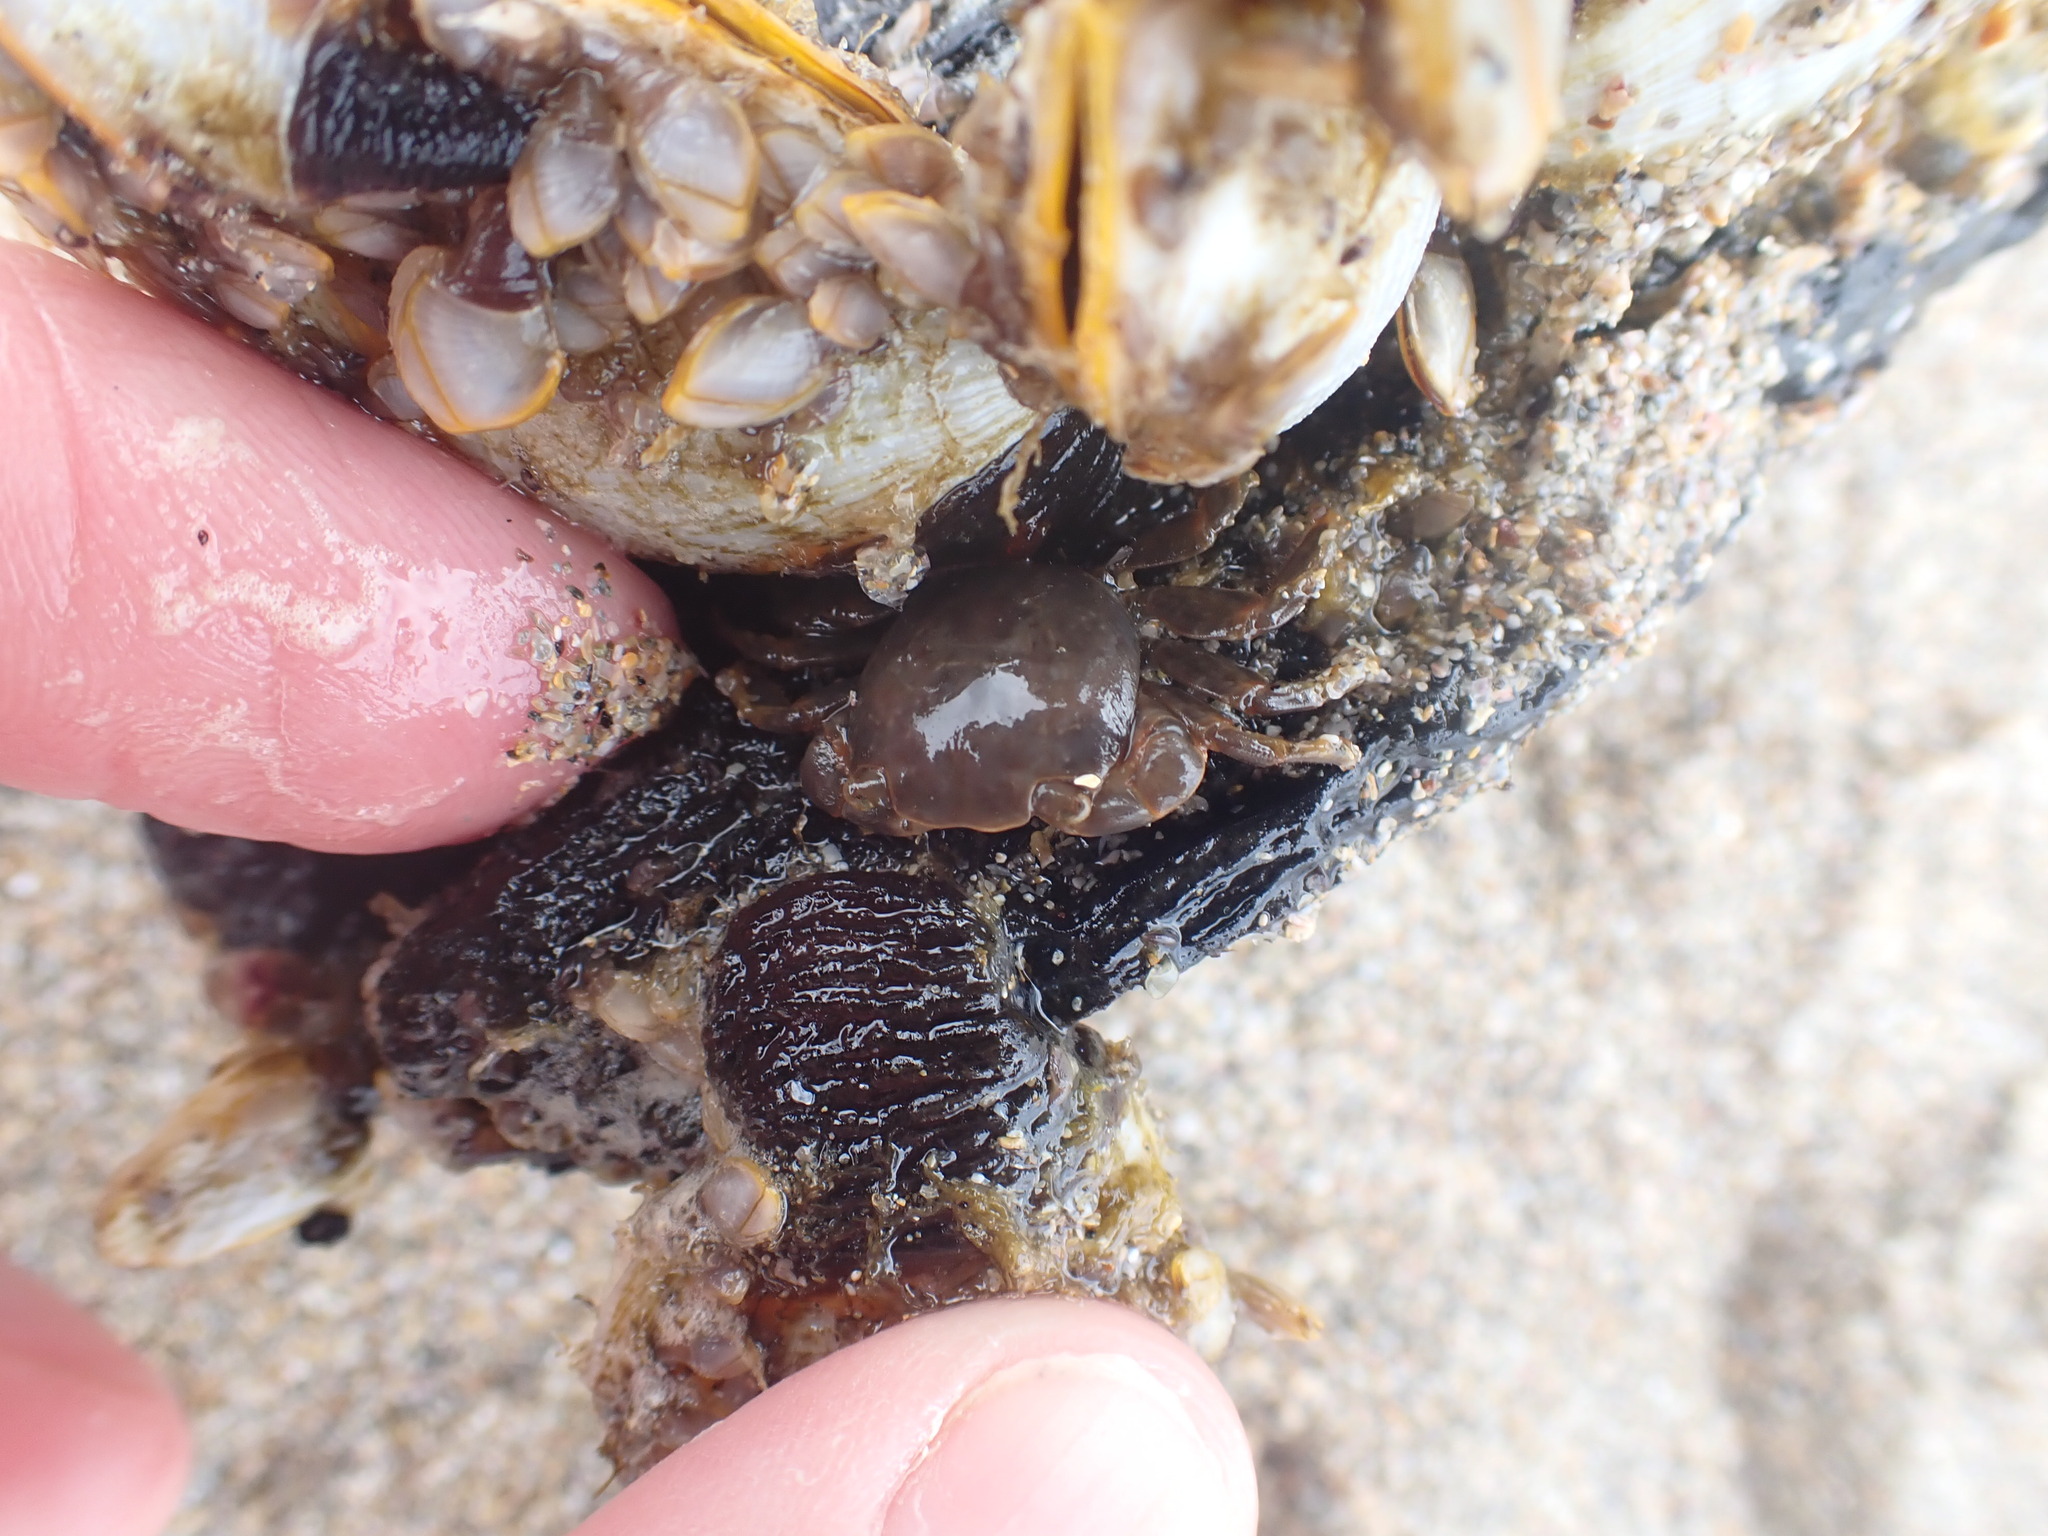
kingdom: Animalia
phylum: Arthropoda
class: Malacostraca
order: Decapoda
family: Grapsidae
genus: Planes
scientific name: Planes minutus
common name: Gulf weed crab
